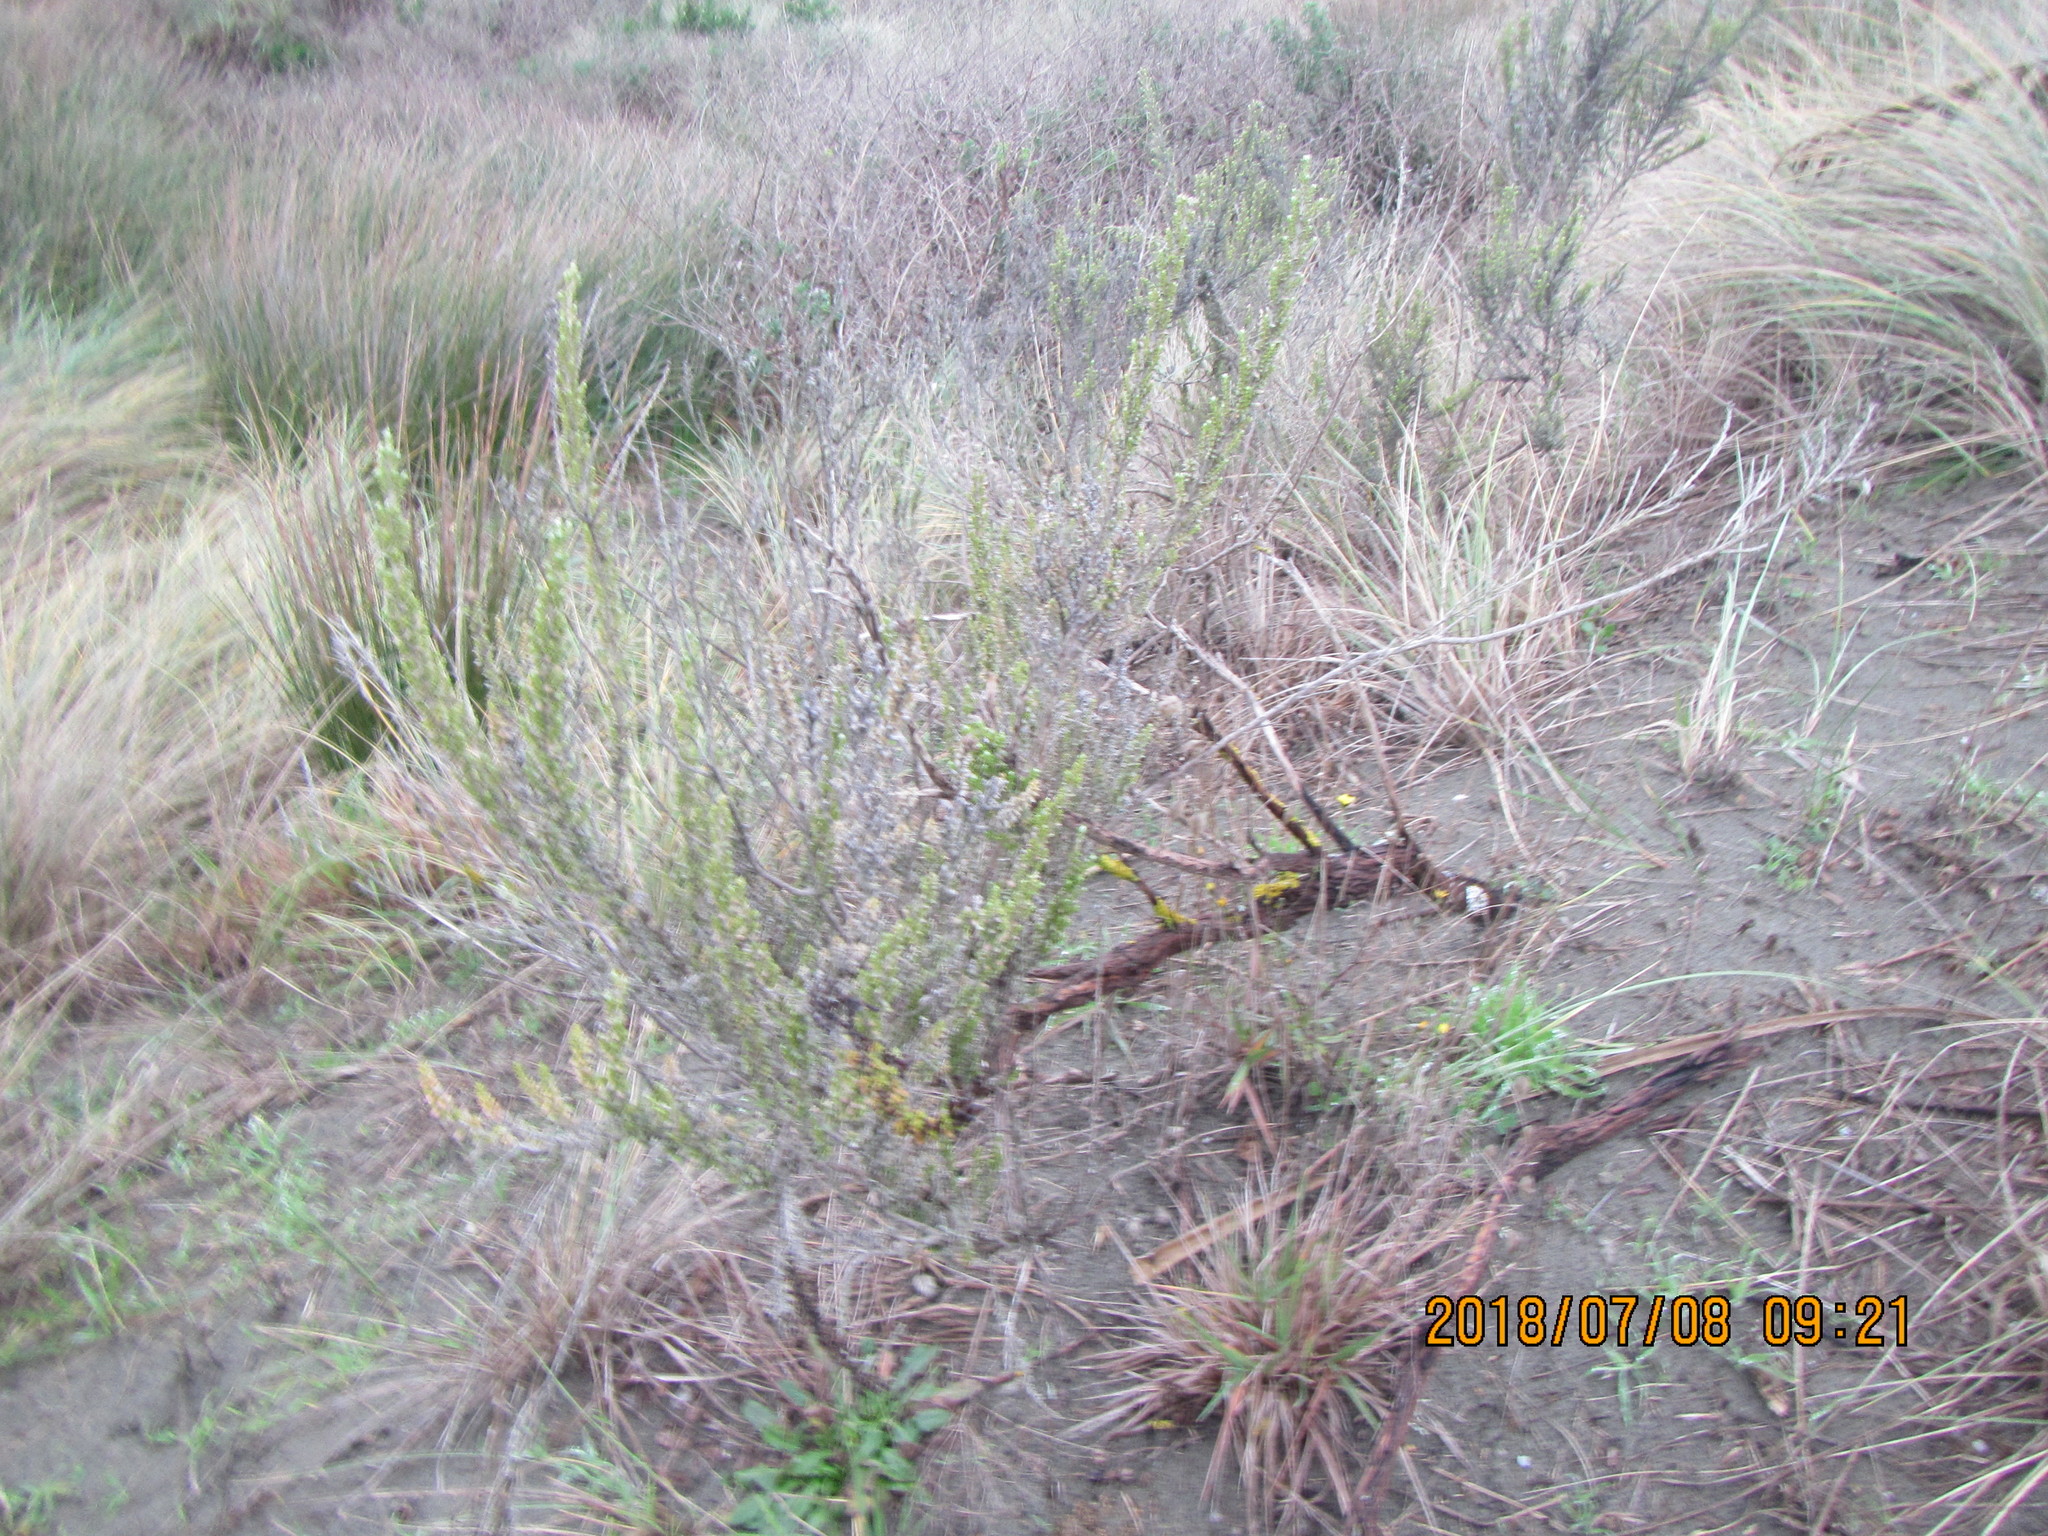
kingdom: Plantae
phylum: Tracheophyta
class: Magnoliopsida
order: Asterales
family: Asteraceae
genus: Ozothamnus
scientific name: Ozothamnus leptophyllus
